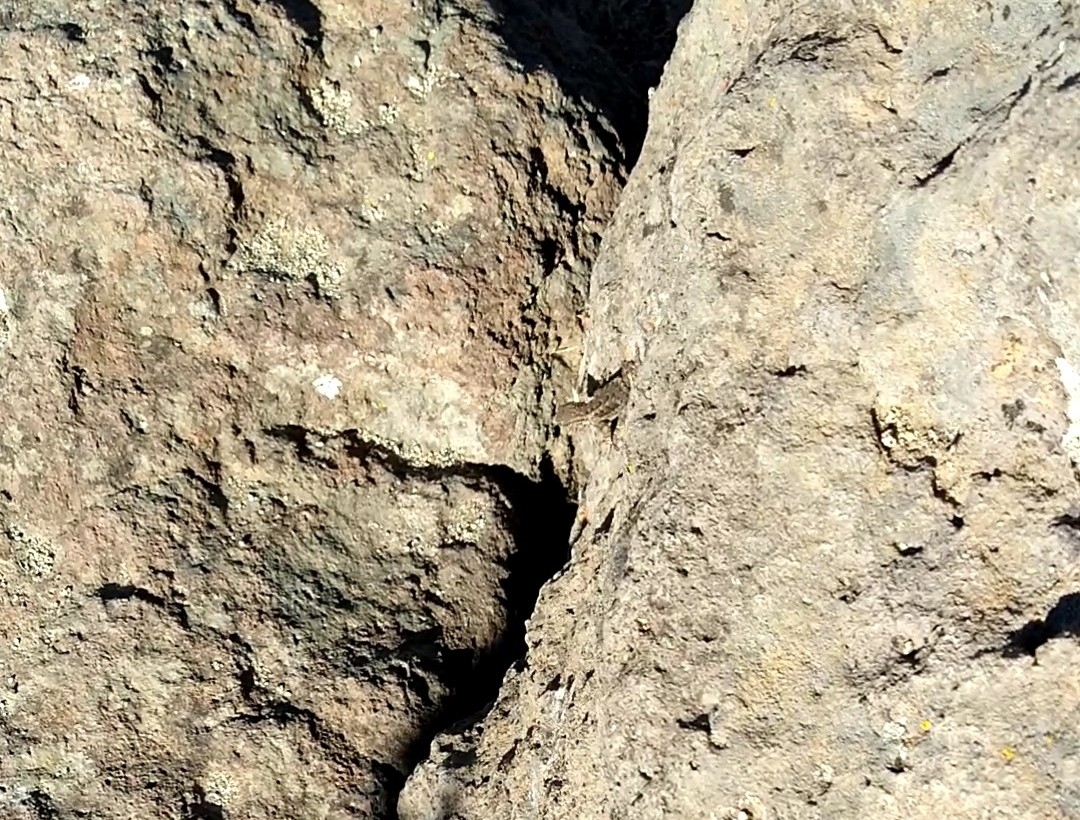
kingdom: Animalia
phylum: Chordata
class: Squamata
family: Phrynosomatidae
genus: Sceloporus
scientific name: Sceloporus occidentalis
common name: Western fence lizard
